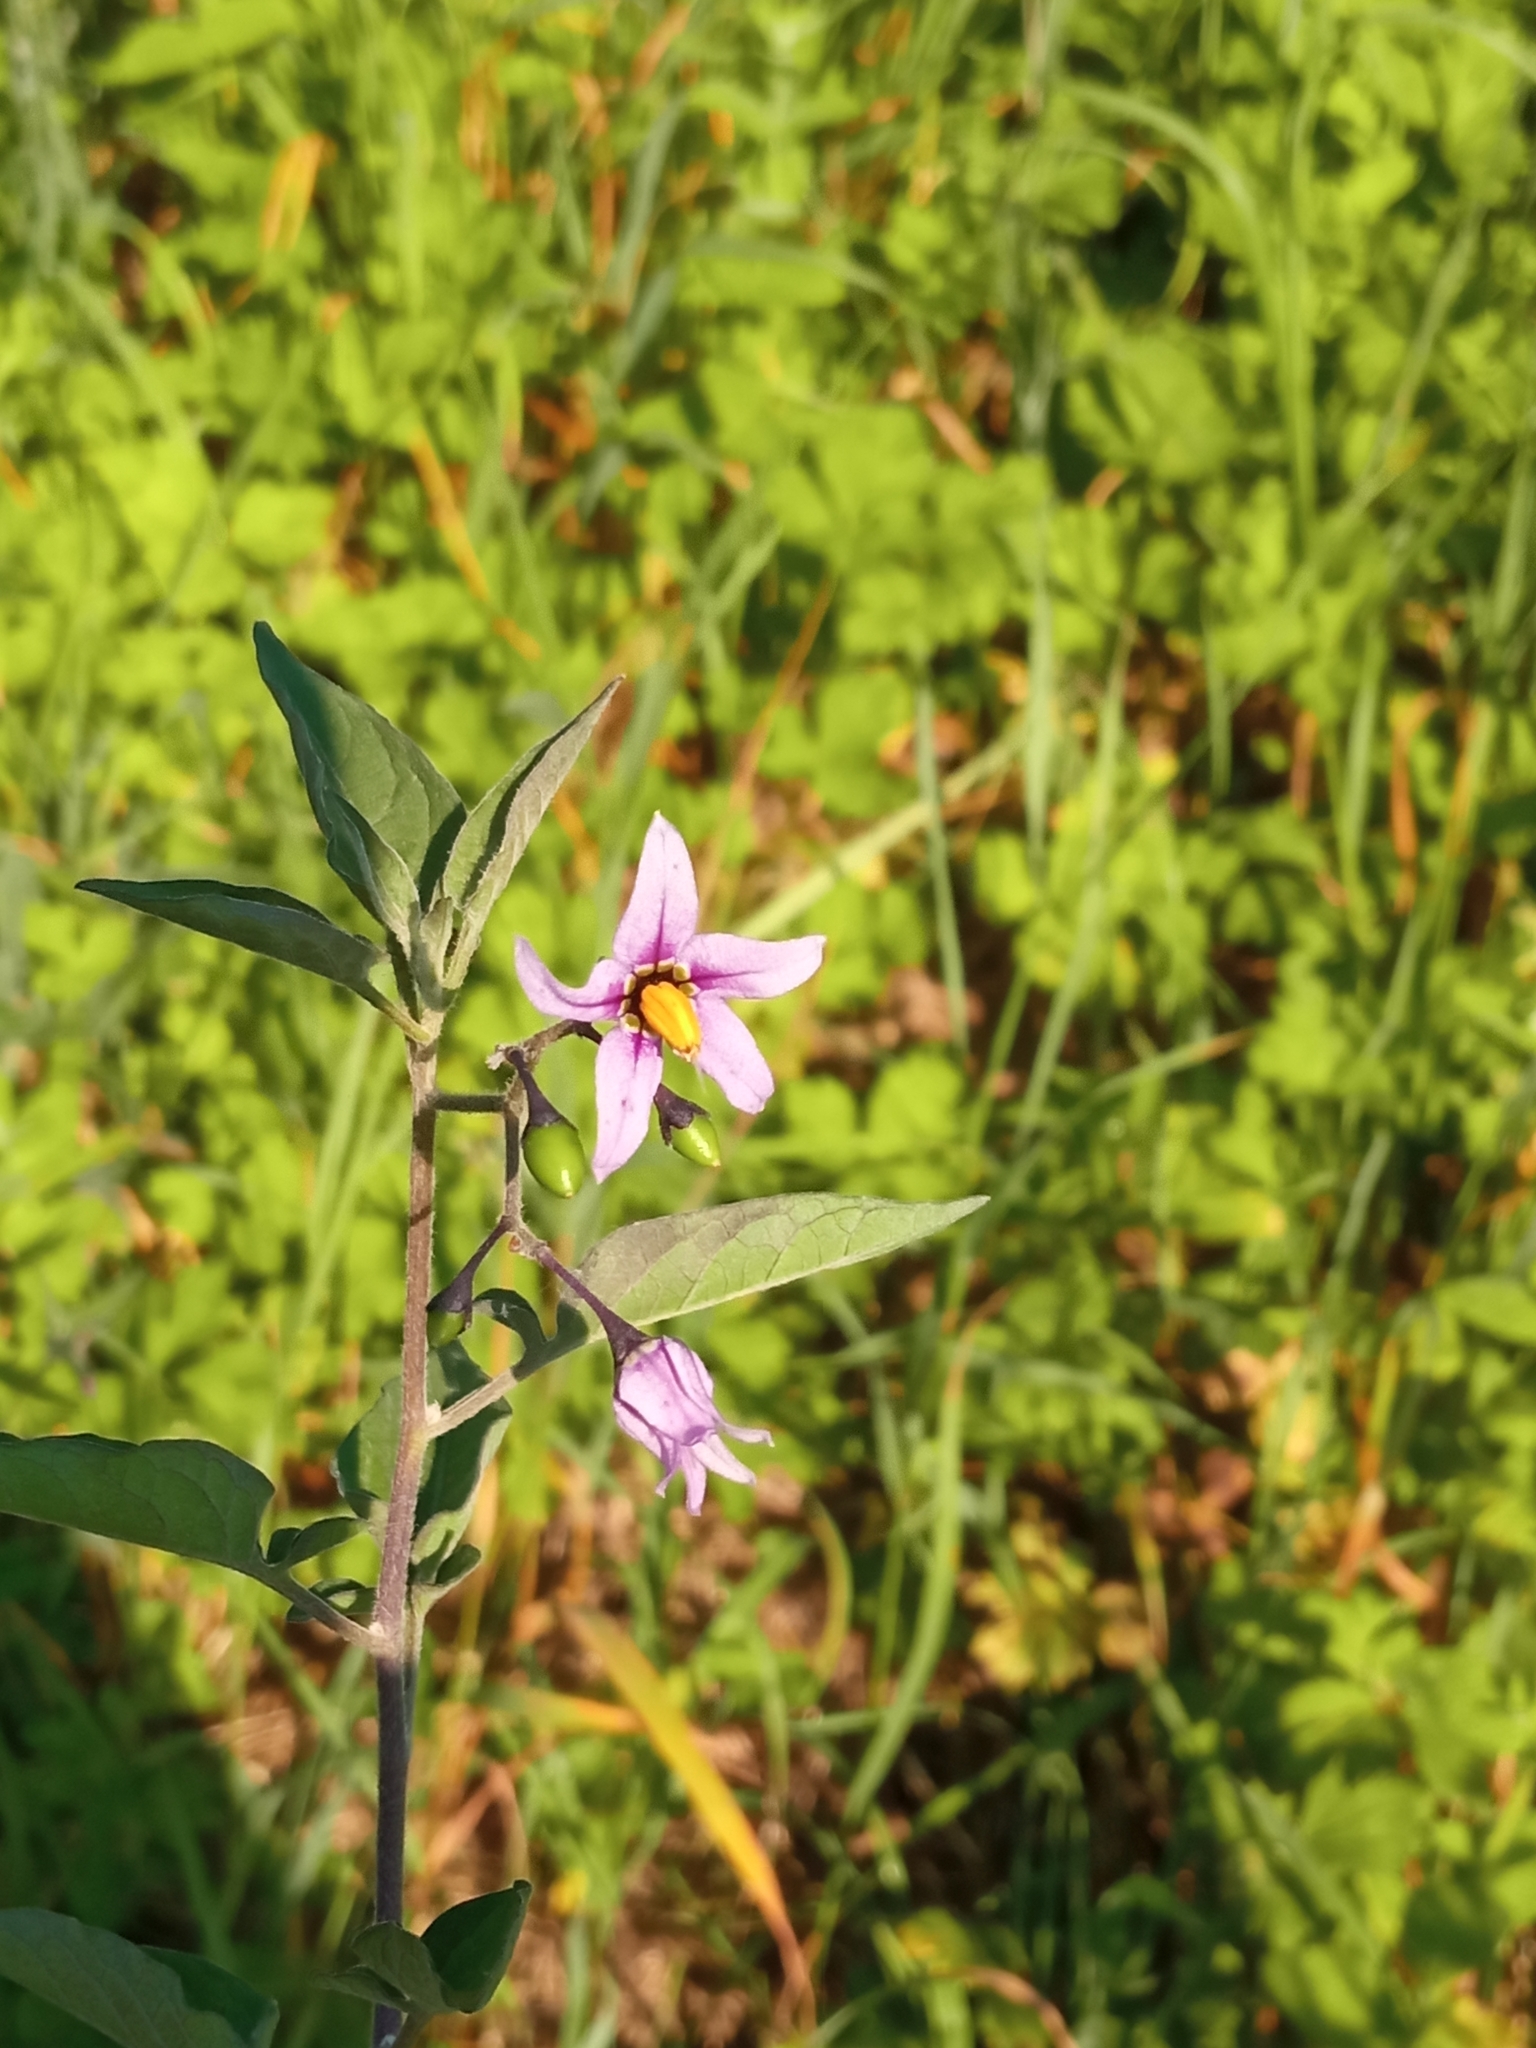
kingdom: Plantae
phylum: Tracheophyta
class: Magnoliopsida
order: Solanales
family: Solanaceae
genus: Solanum
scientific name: Solanum dulcamara
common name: Climbing nightshade
